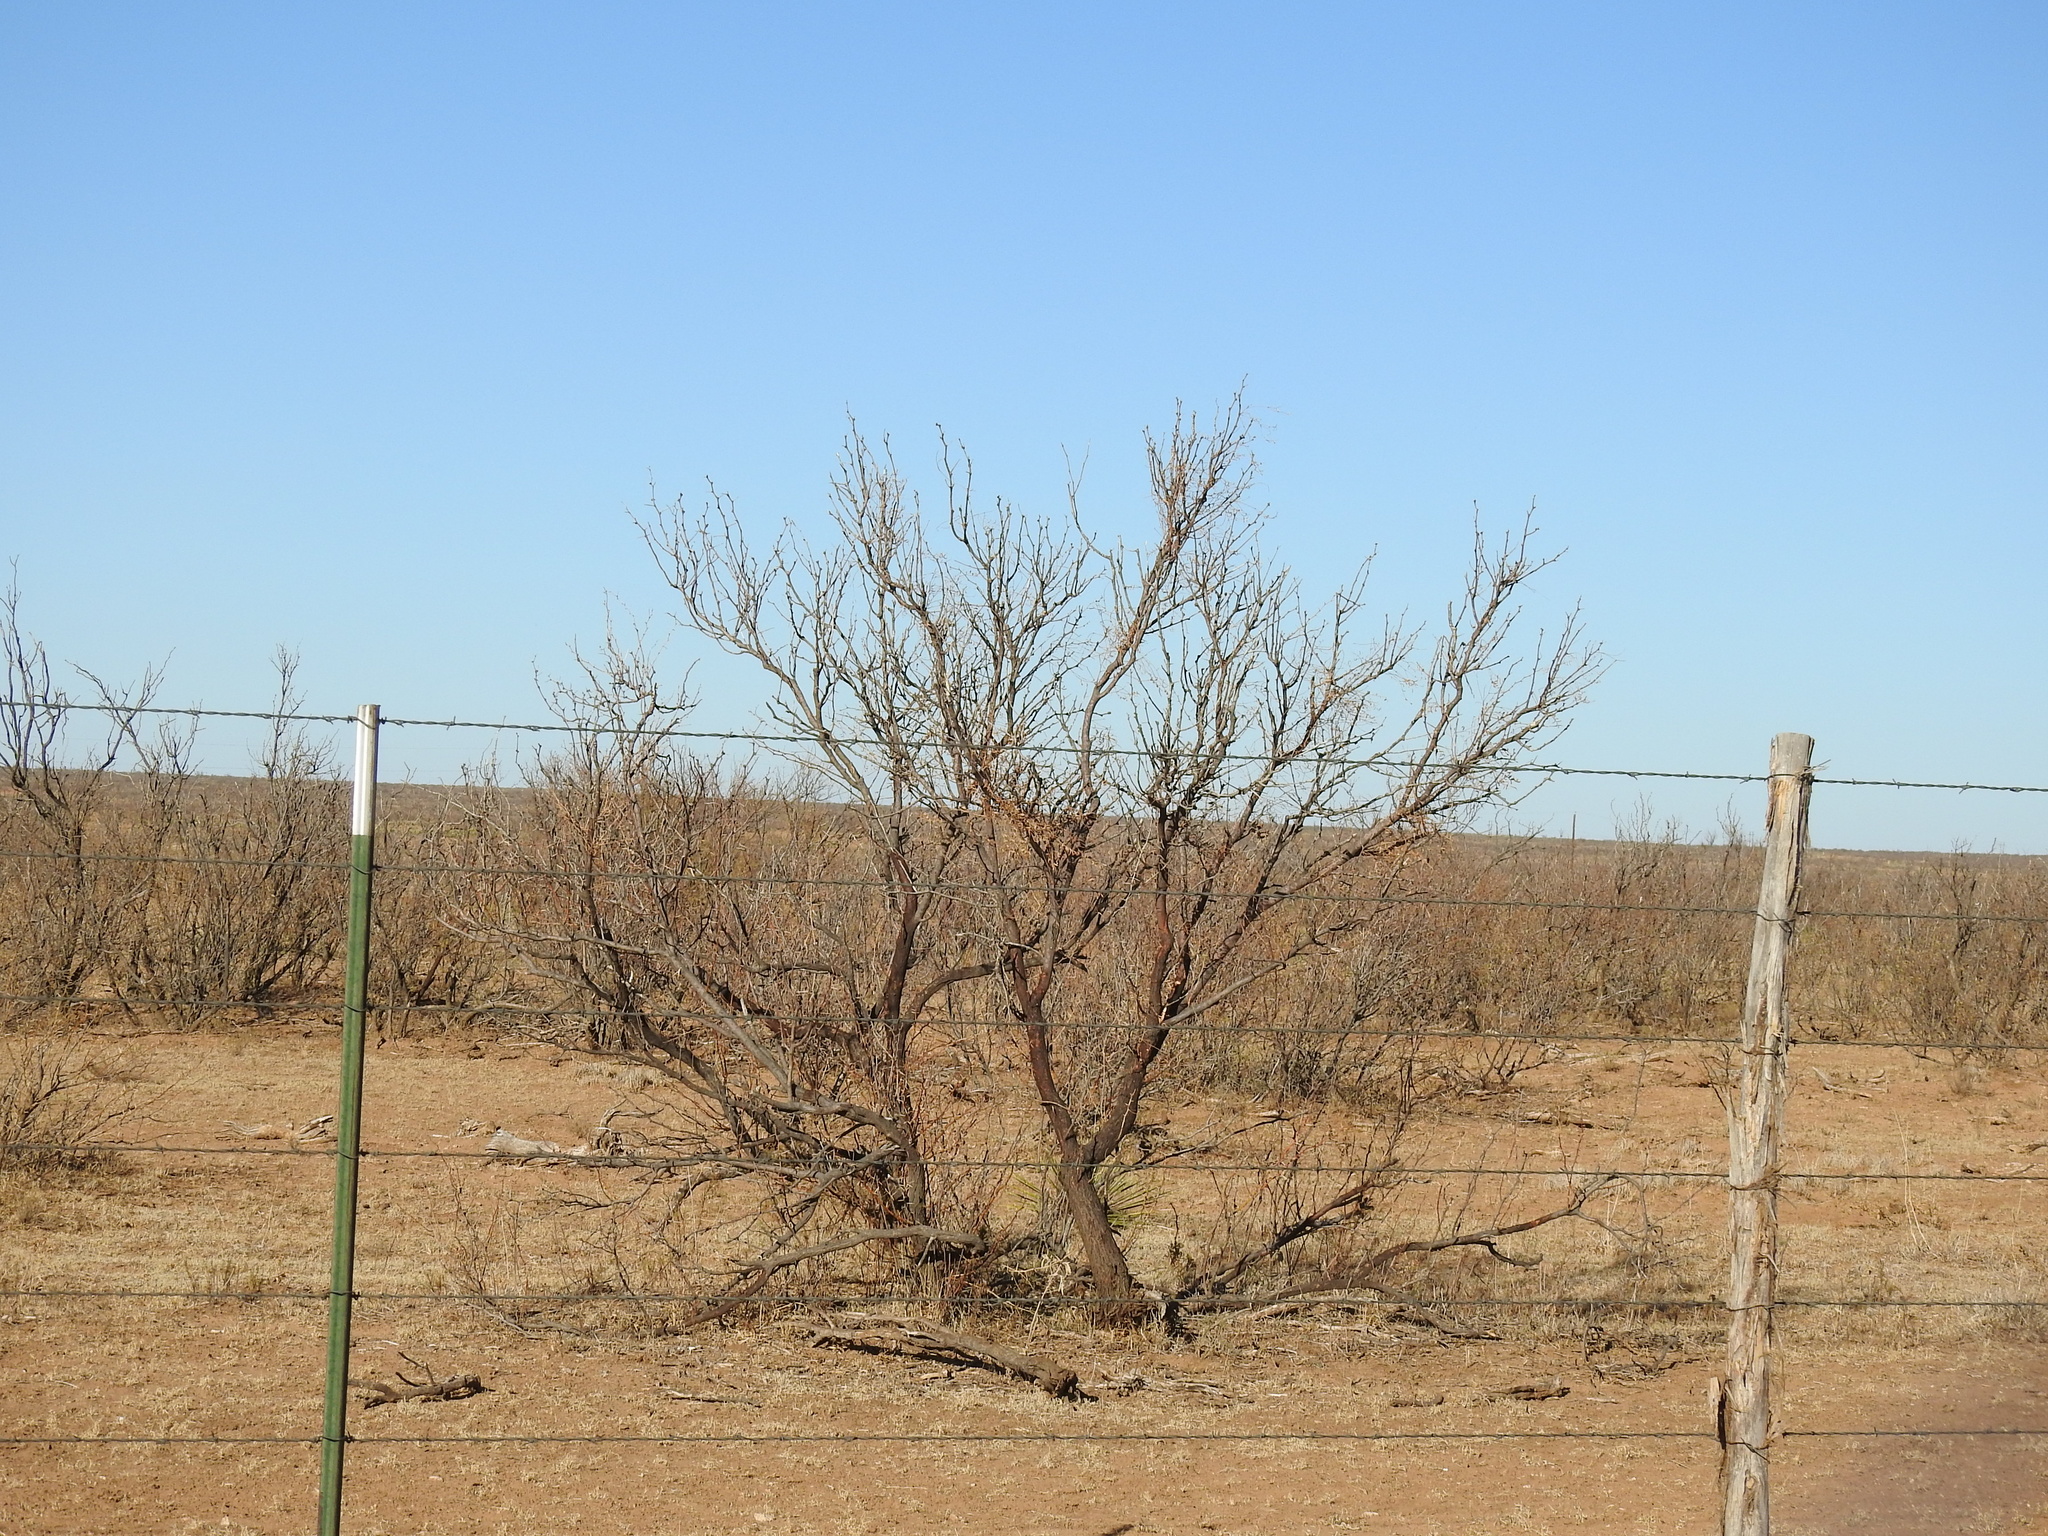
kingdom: Plantae
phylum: Tracheophyta
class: Magnoliopsida
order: Fabales
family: Fabaceae
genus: Prosopis
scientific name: Prosopis glandulosa
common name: Honey mesquite
